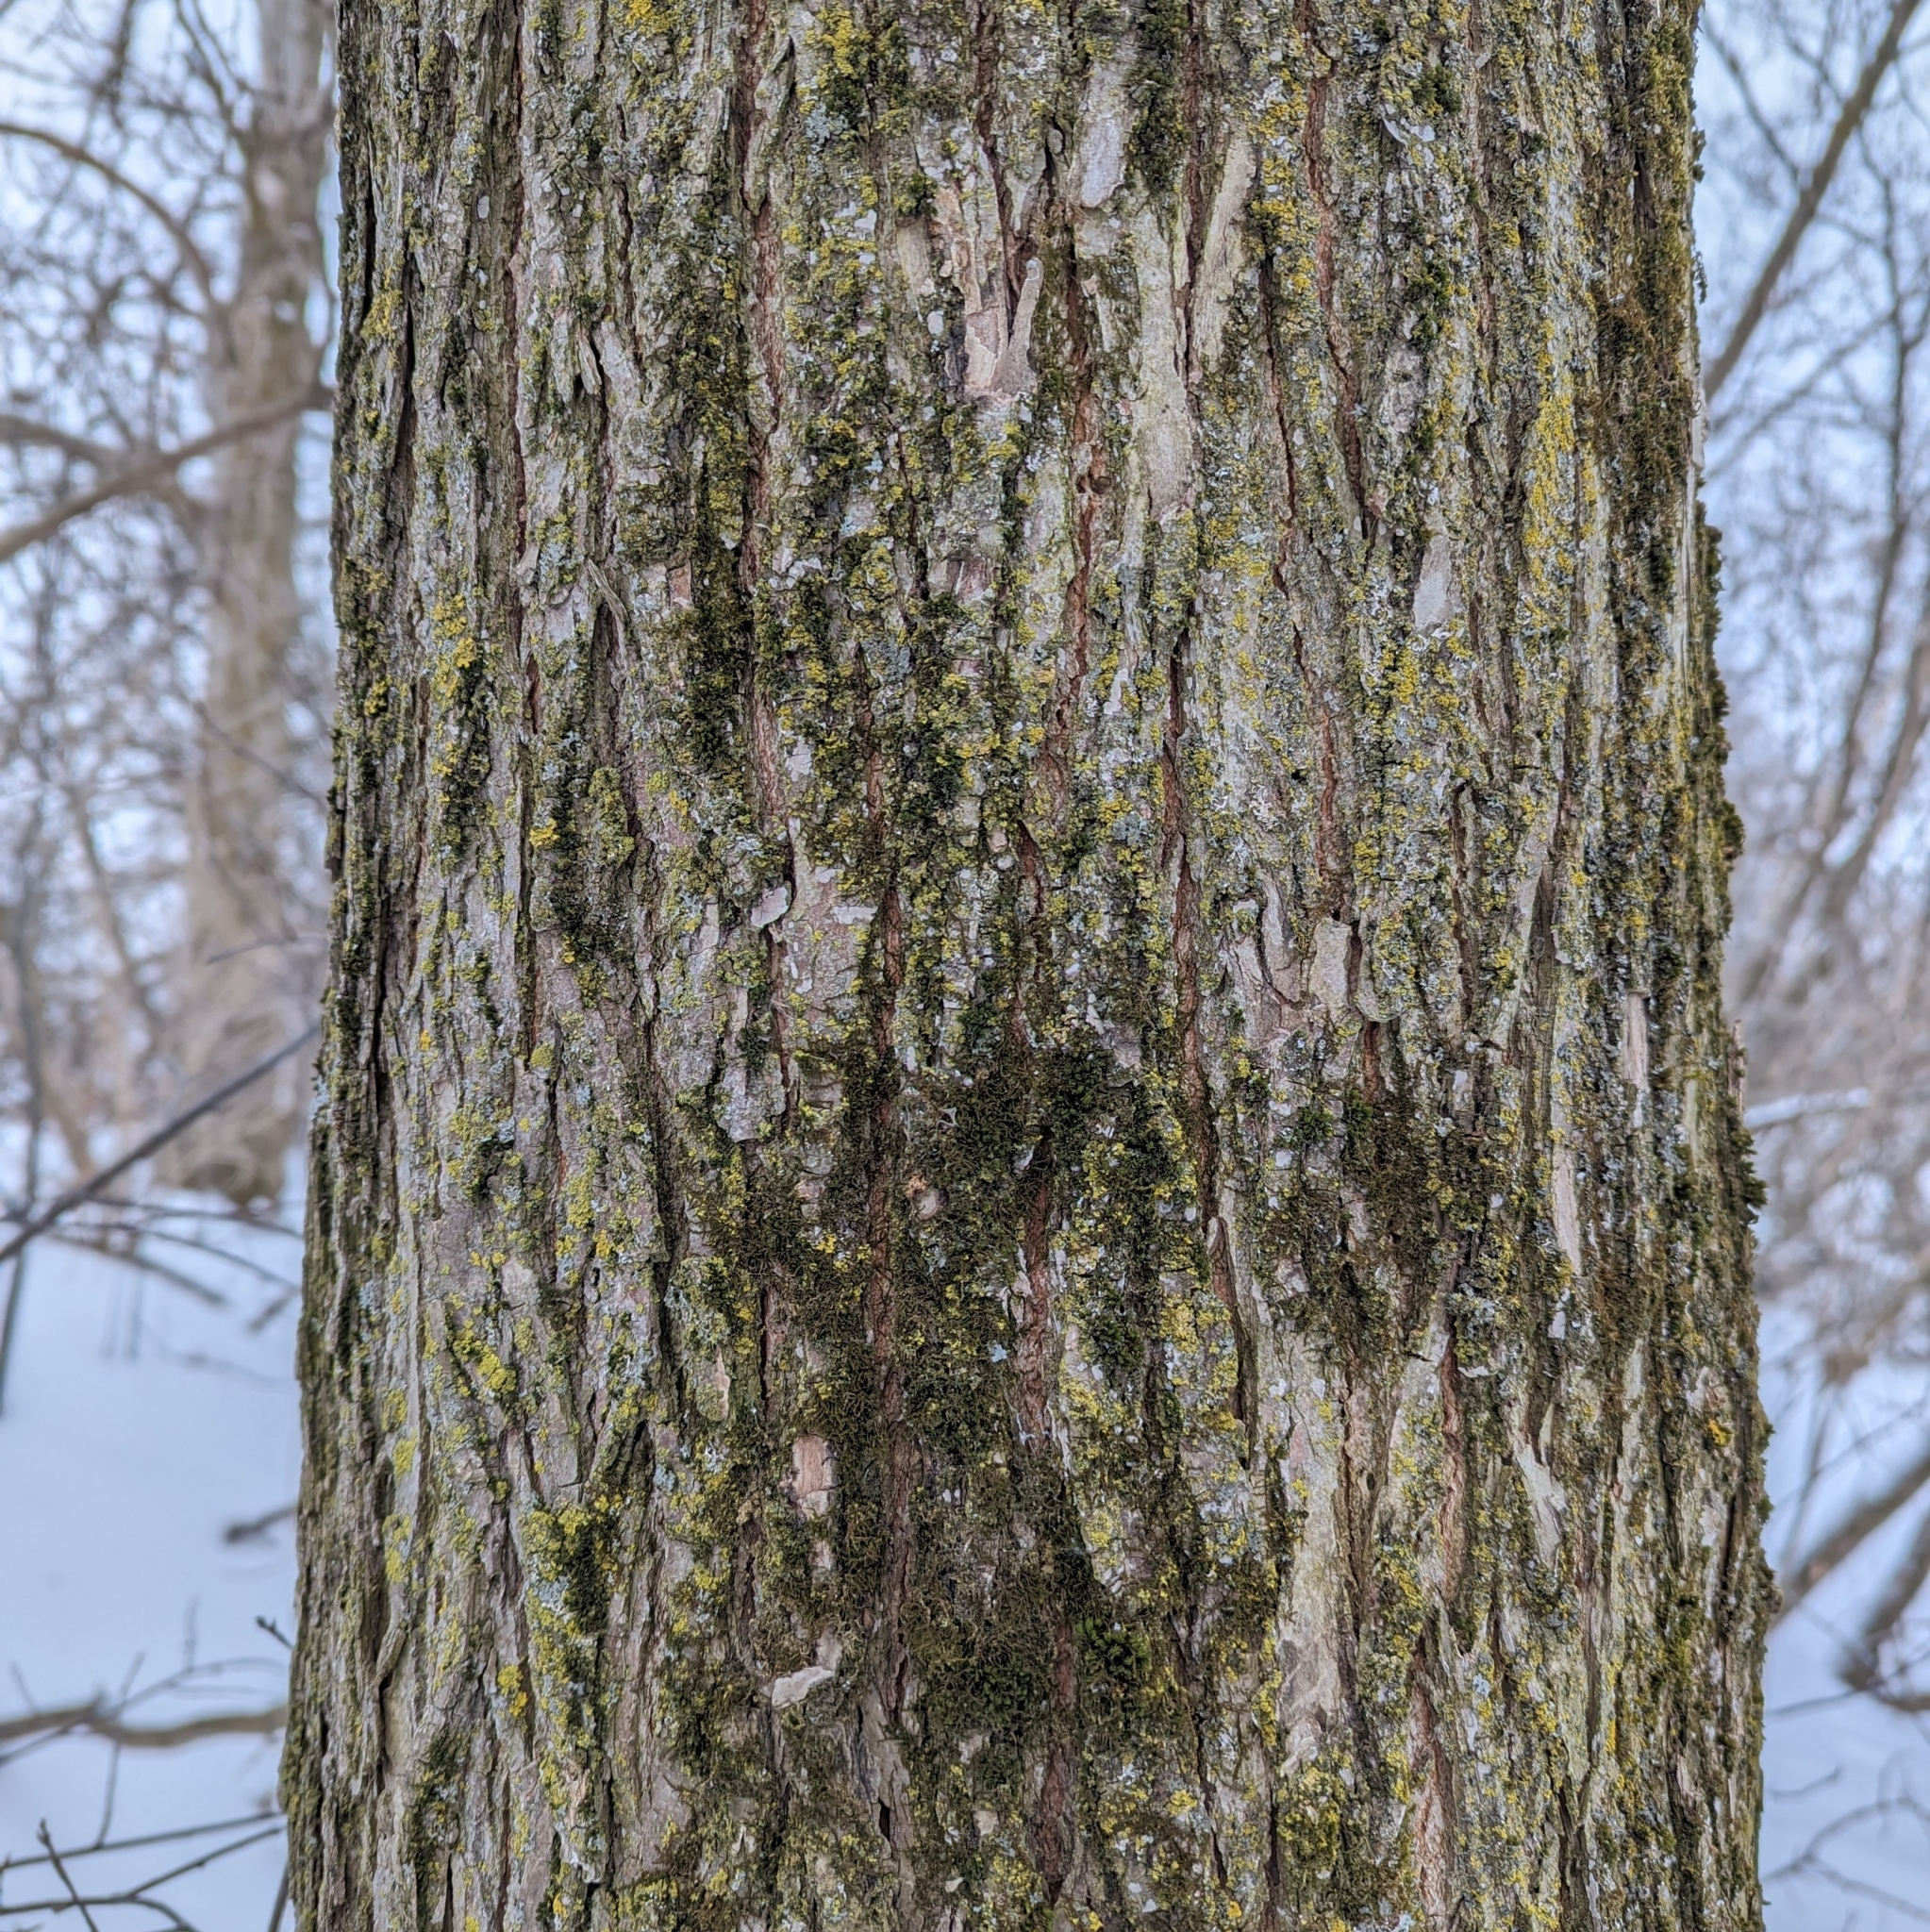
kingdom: Plantae
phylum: Tracheophyta
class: Magnoliopsida
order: Rosales
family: Ulmaceae
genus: Ulmus
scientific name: Ulmus
